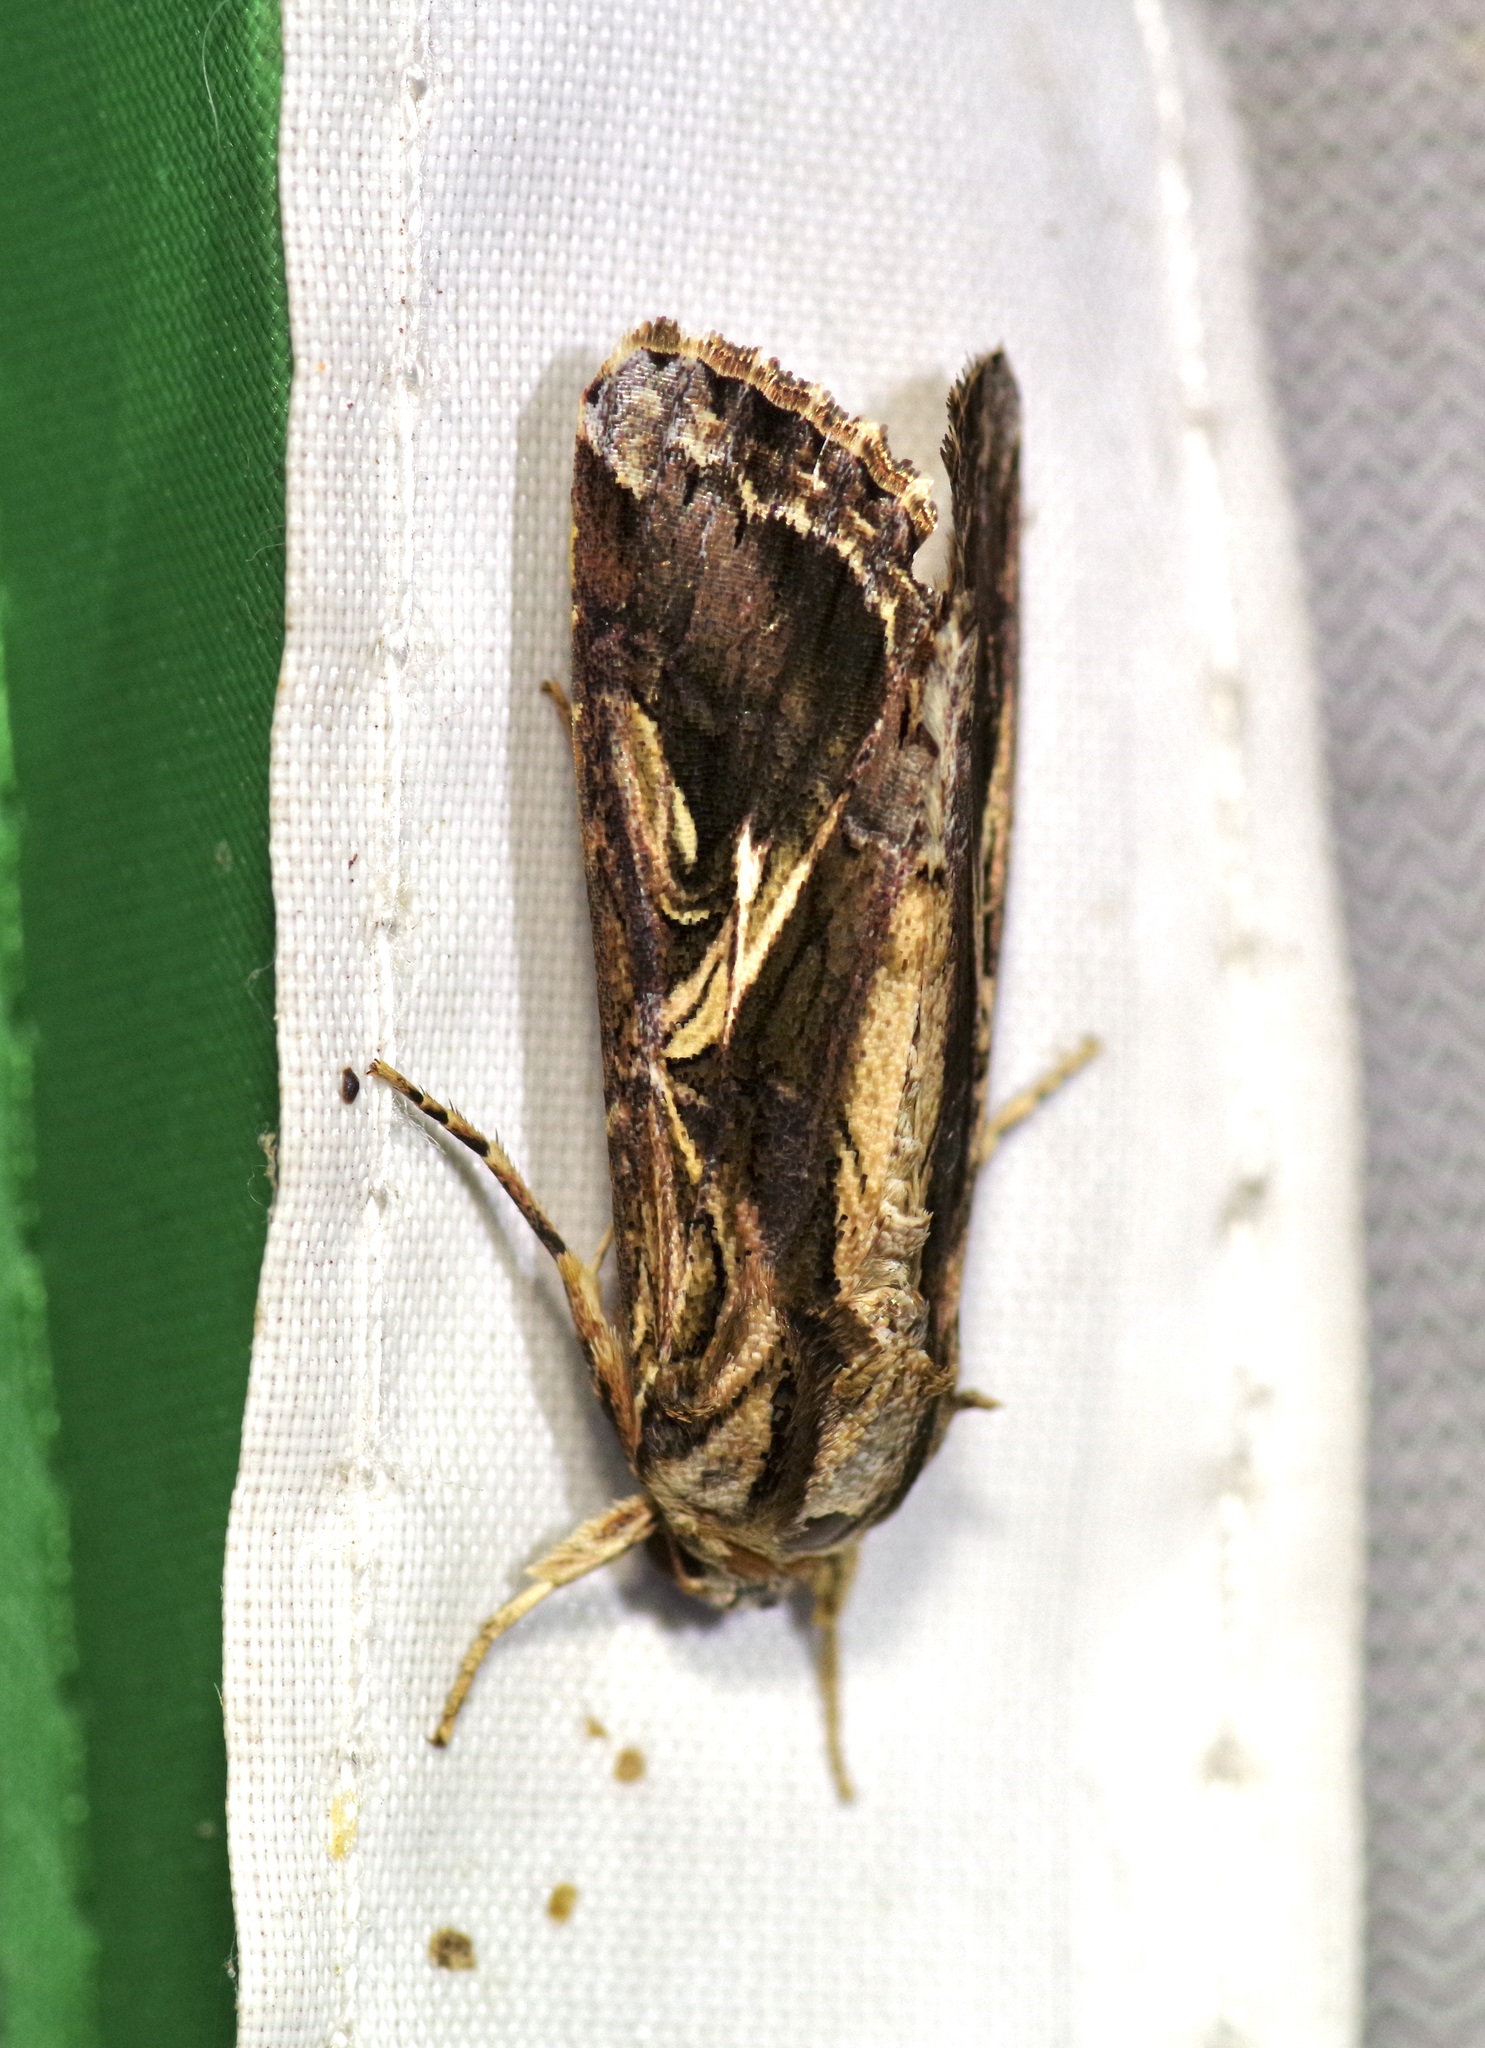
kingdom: Animalia
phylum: Arthropoda
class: Insecta
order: Lepidoptera
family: Noctuidae
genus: Spodoptera
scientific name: Spodoptera dolichos
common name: Sweetpotato armyworm
